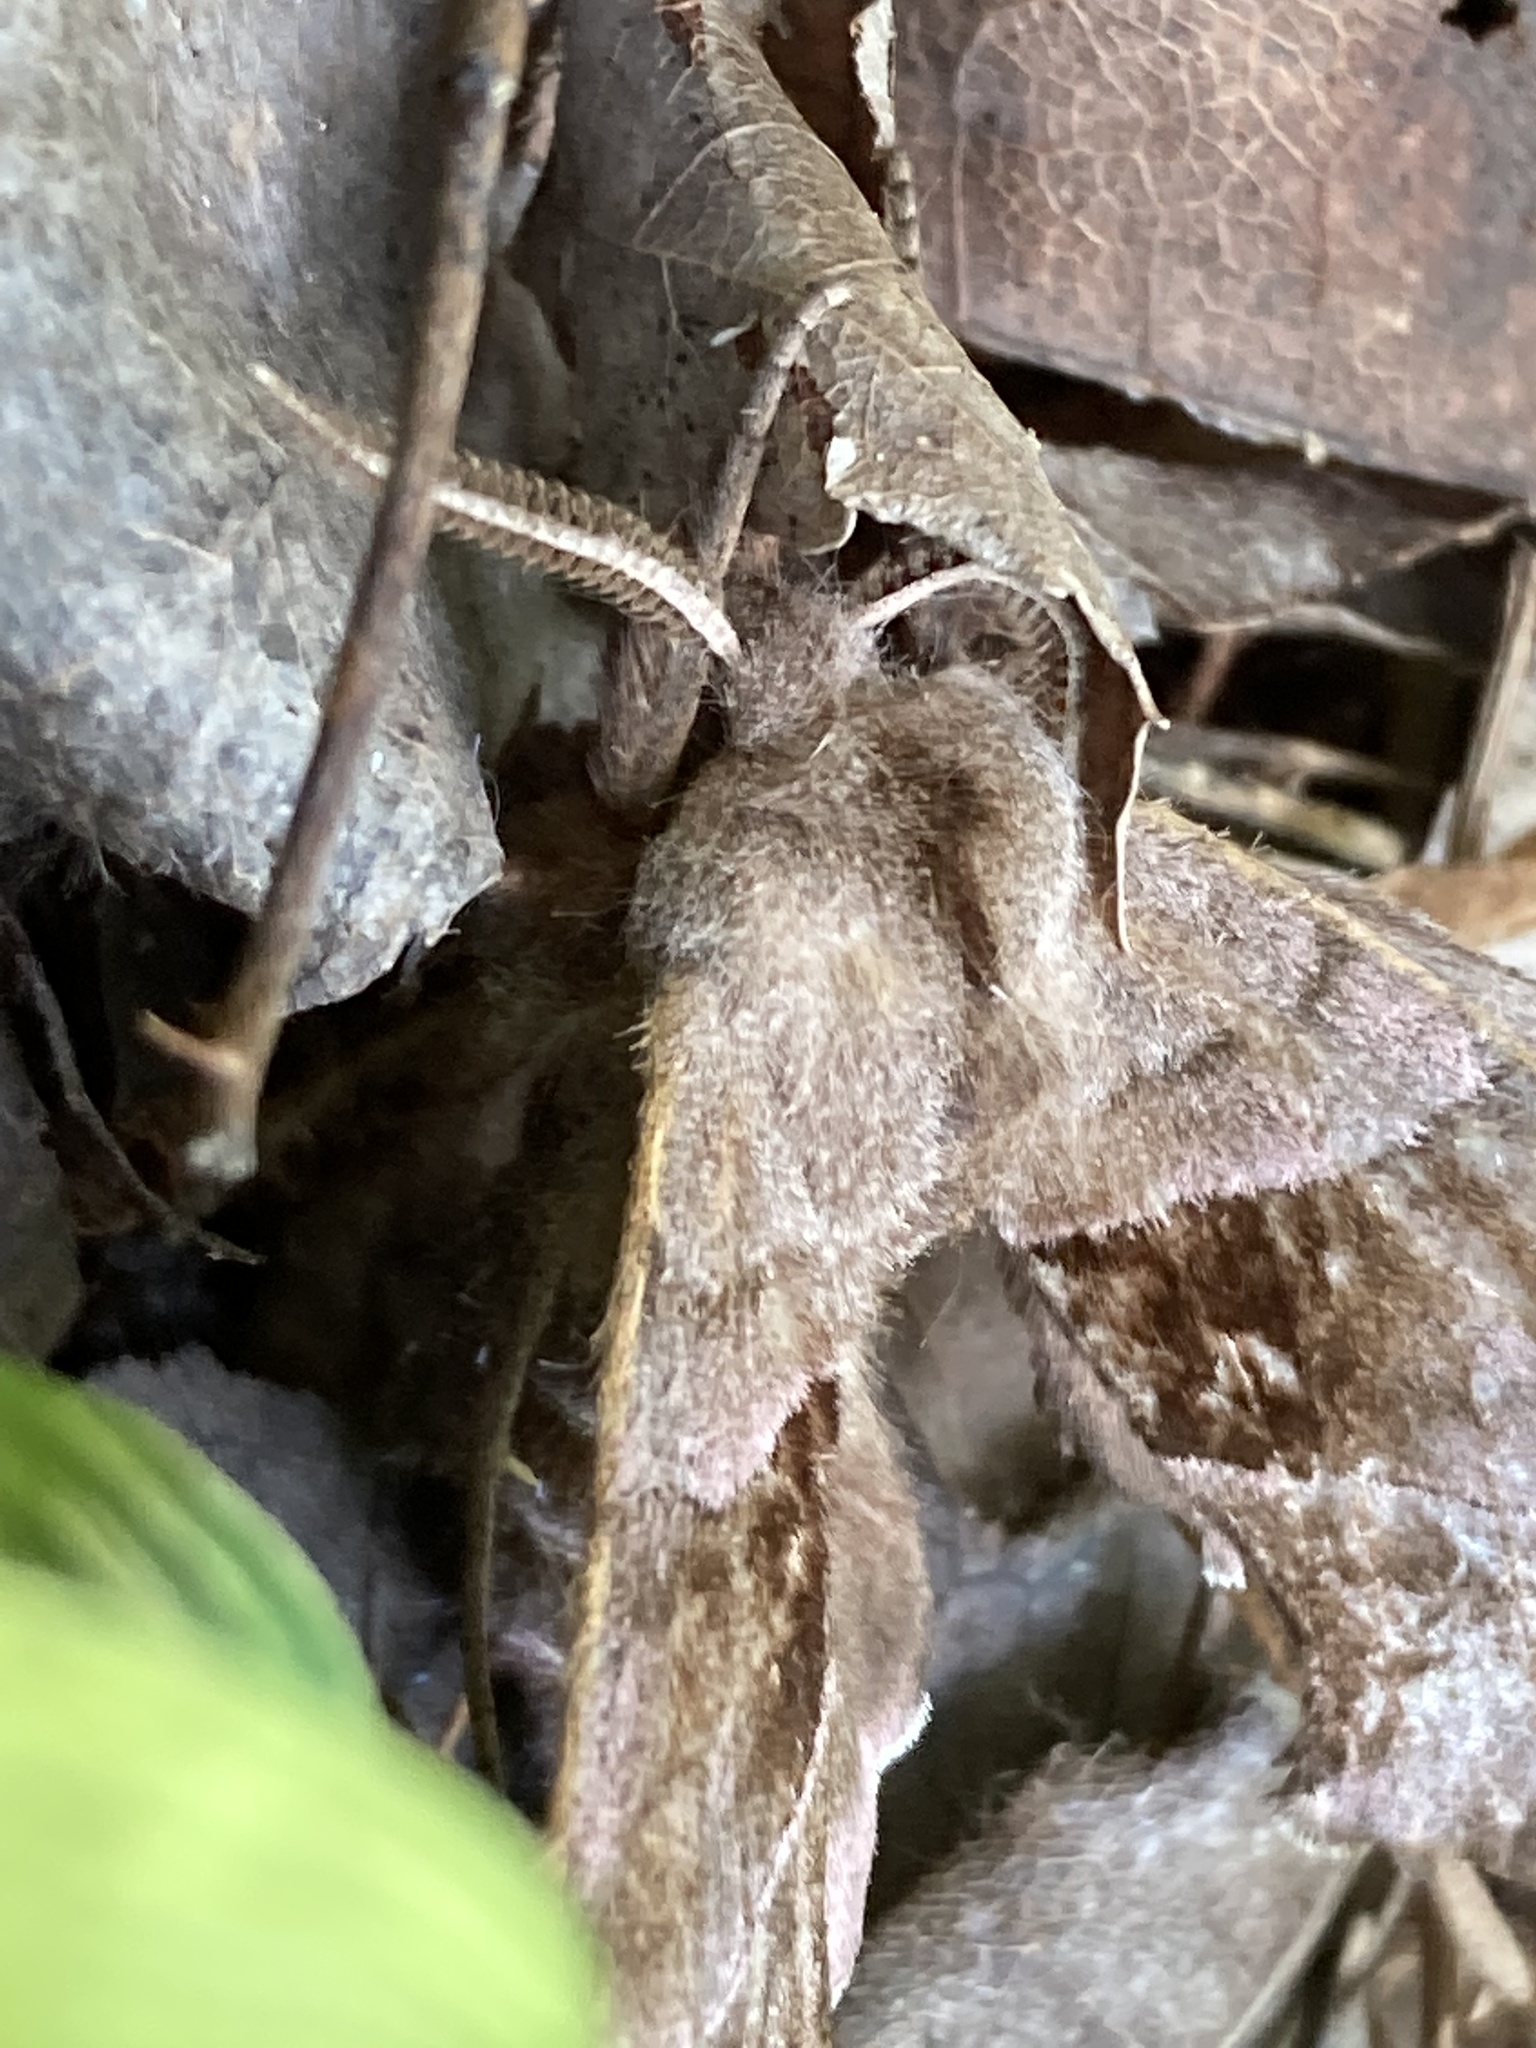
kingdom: Animalia
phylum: Arthropoda
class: Insecta
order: Lepidoptera
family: Sphingidae
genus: Amorpha
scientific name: Amorpha juglandis
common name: Walnut sphinx
